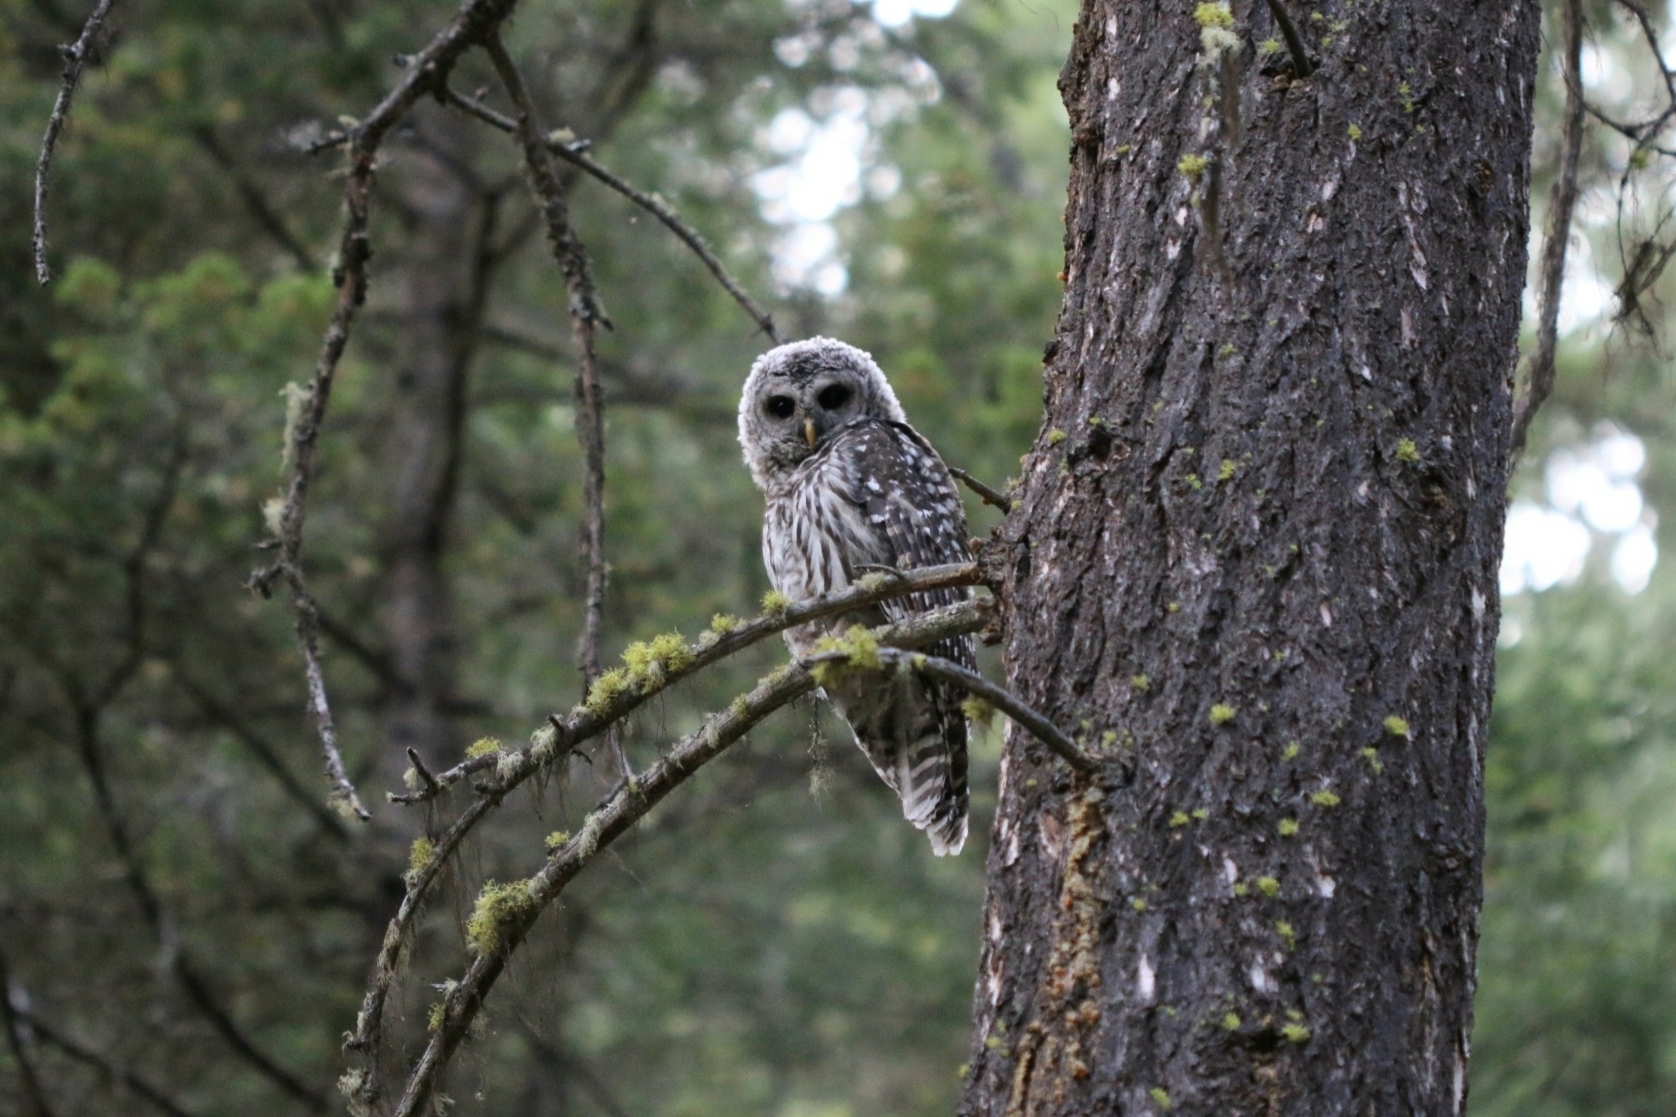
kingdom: Animalia
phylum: Chordata
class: Aves
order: Strigiformes
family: Strigidae
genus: Strix
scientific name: Strix varia
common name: Barred owl
